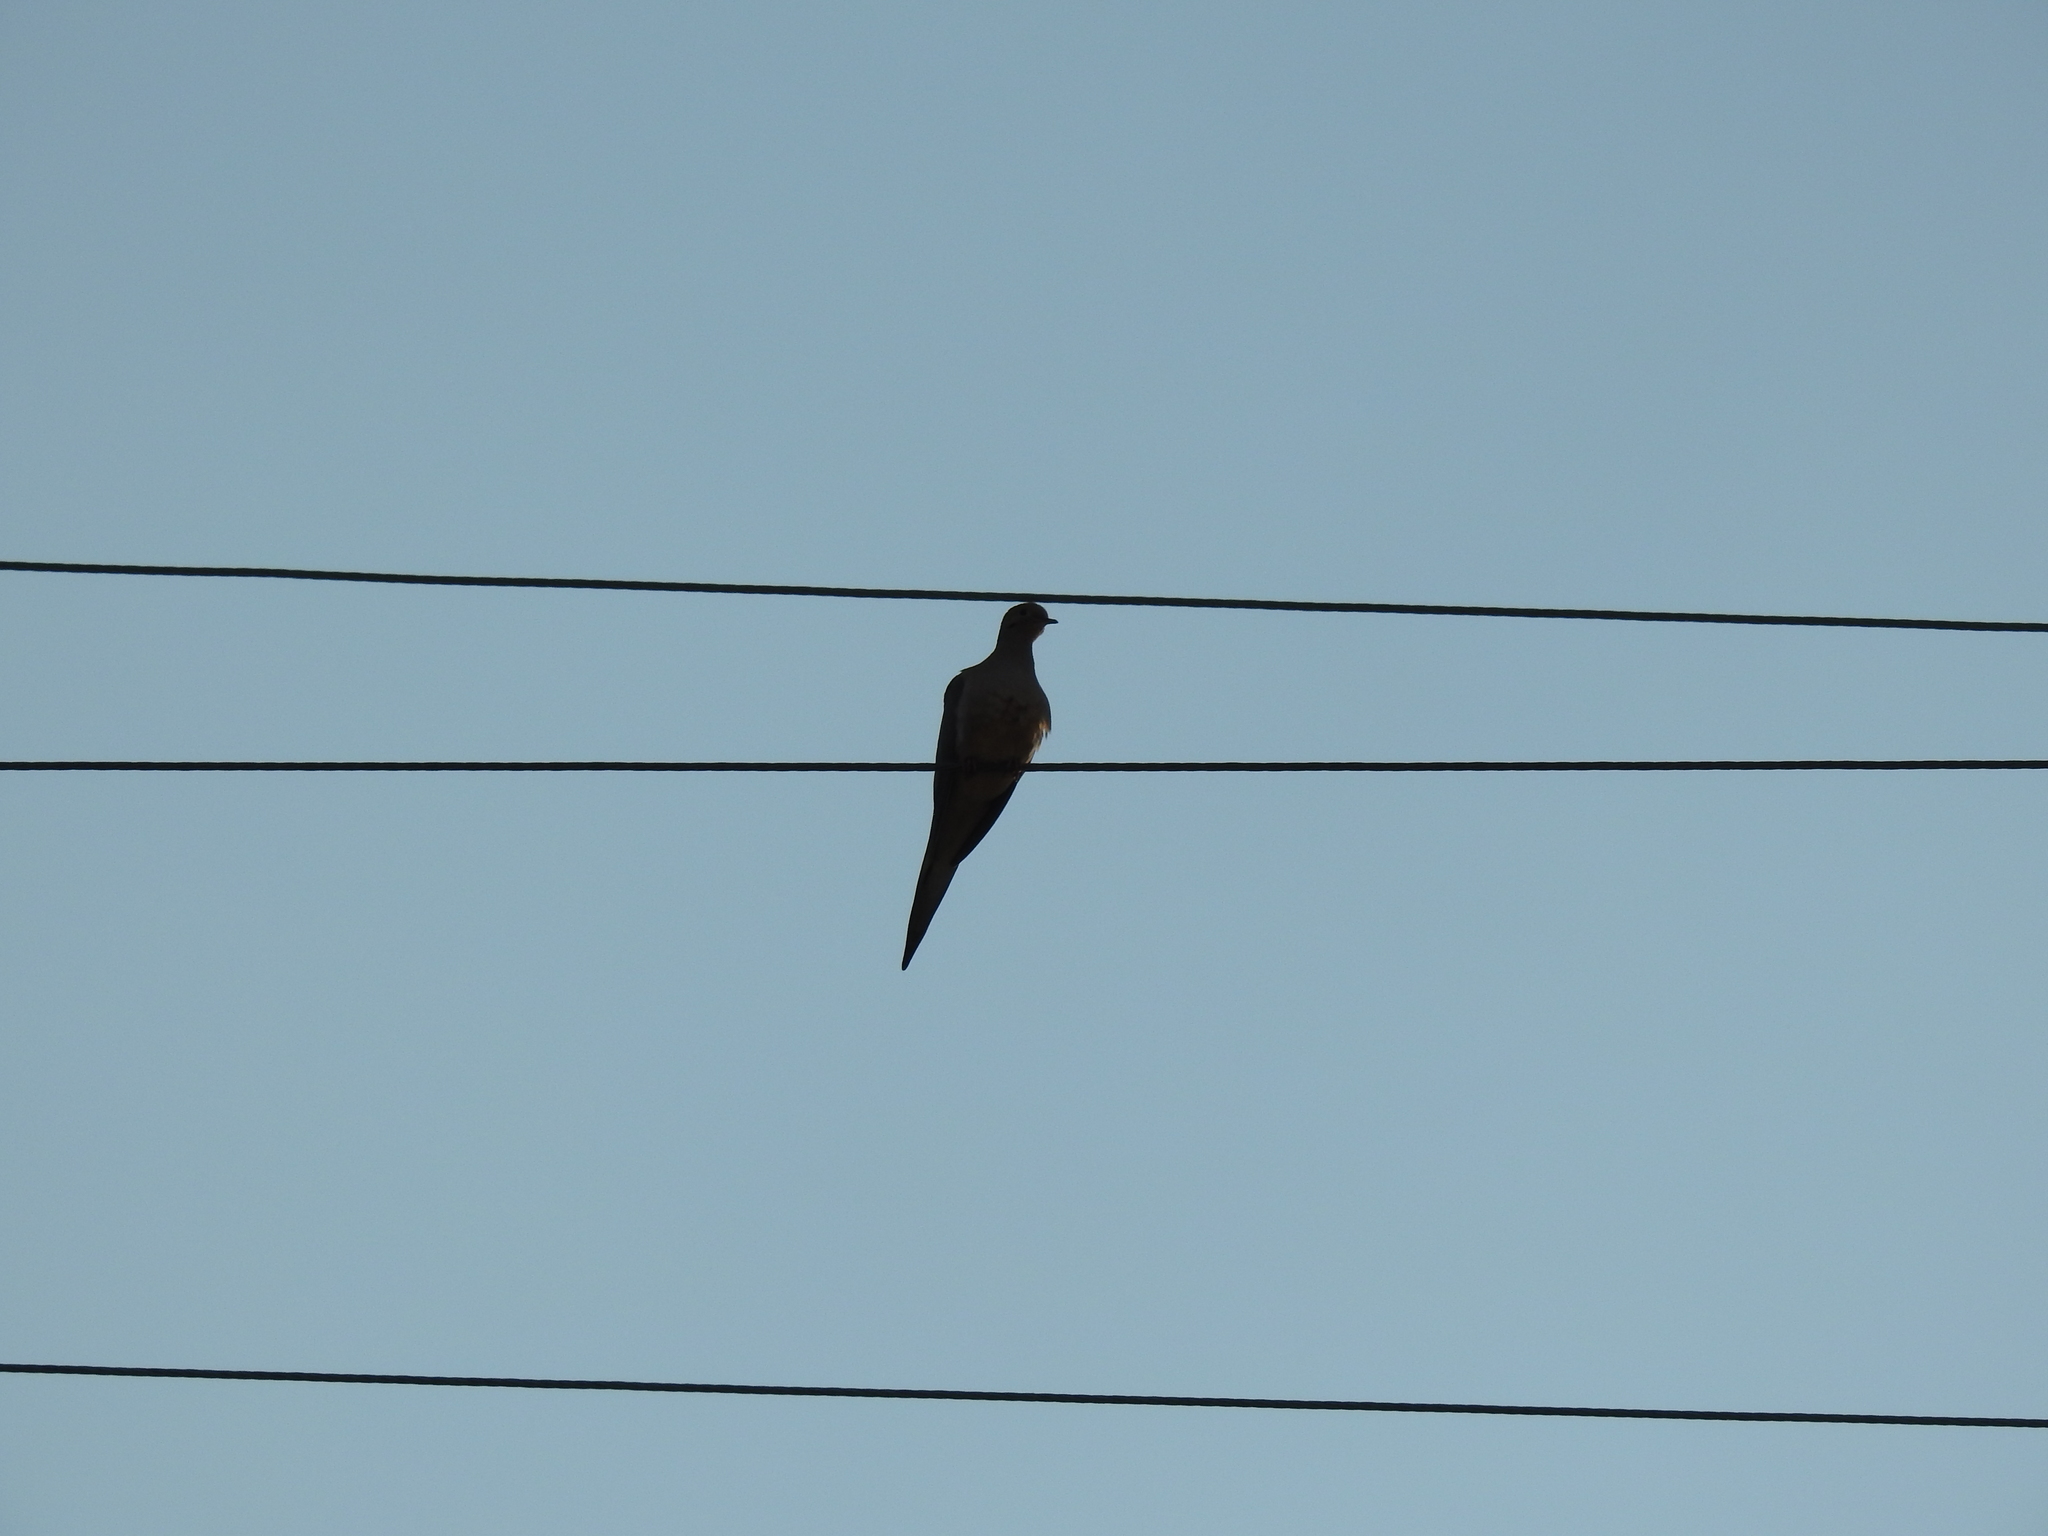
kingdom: Animalia
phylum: Chordata
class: Aves
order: Columbiformes
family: Columbidae
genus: Zenaida
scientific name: Zenaida macroura
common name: Mourning dove
